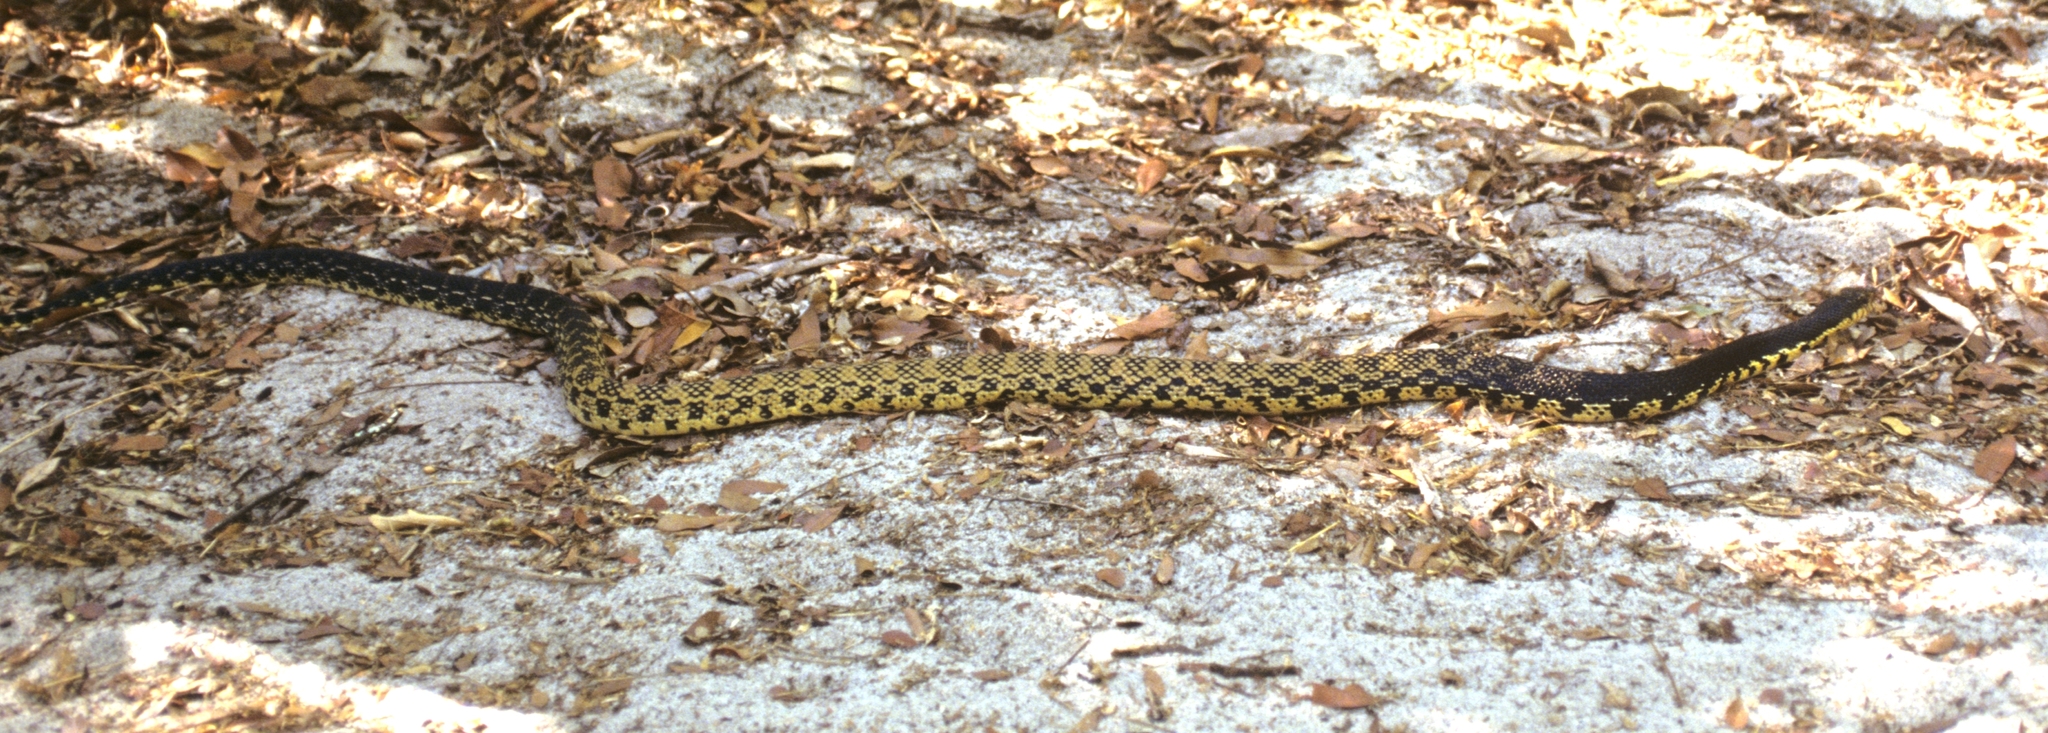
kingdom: Animalia
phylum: Chordata
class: Squamata
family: Pseudoxyrhophiidae
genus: Leioheterodon
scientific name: Leioheterodon madagascariensis
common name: Malagasy giant hognose snake
